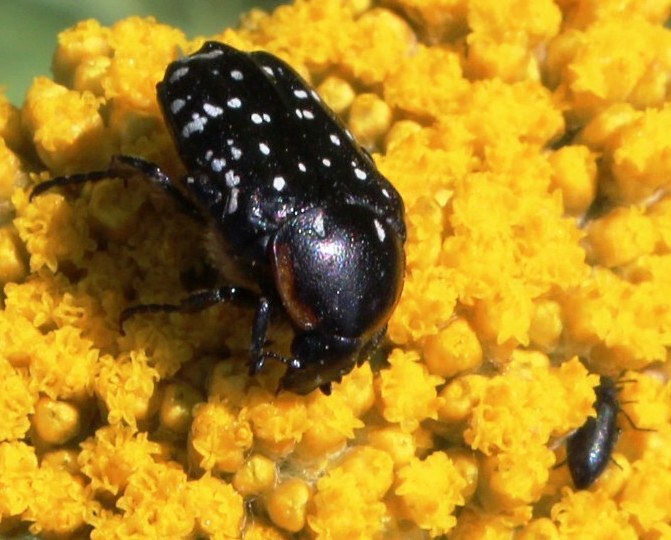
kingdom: Animalia
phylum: Arthropoda
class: Insecta
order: Coleoptera
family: Scarabaeidae
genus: Oxythyrea
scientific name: Oxythyrea
